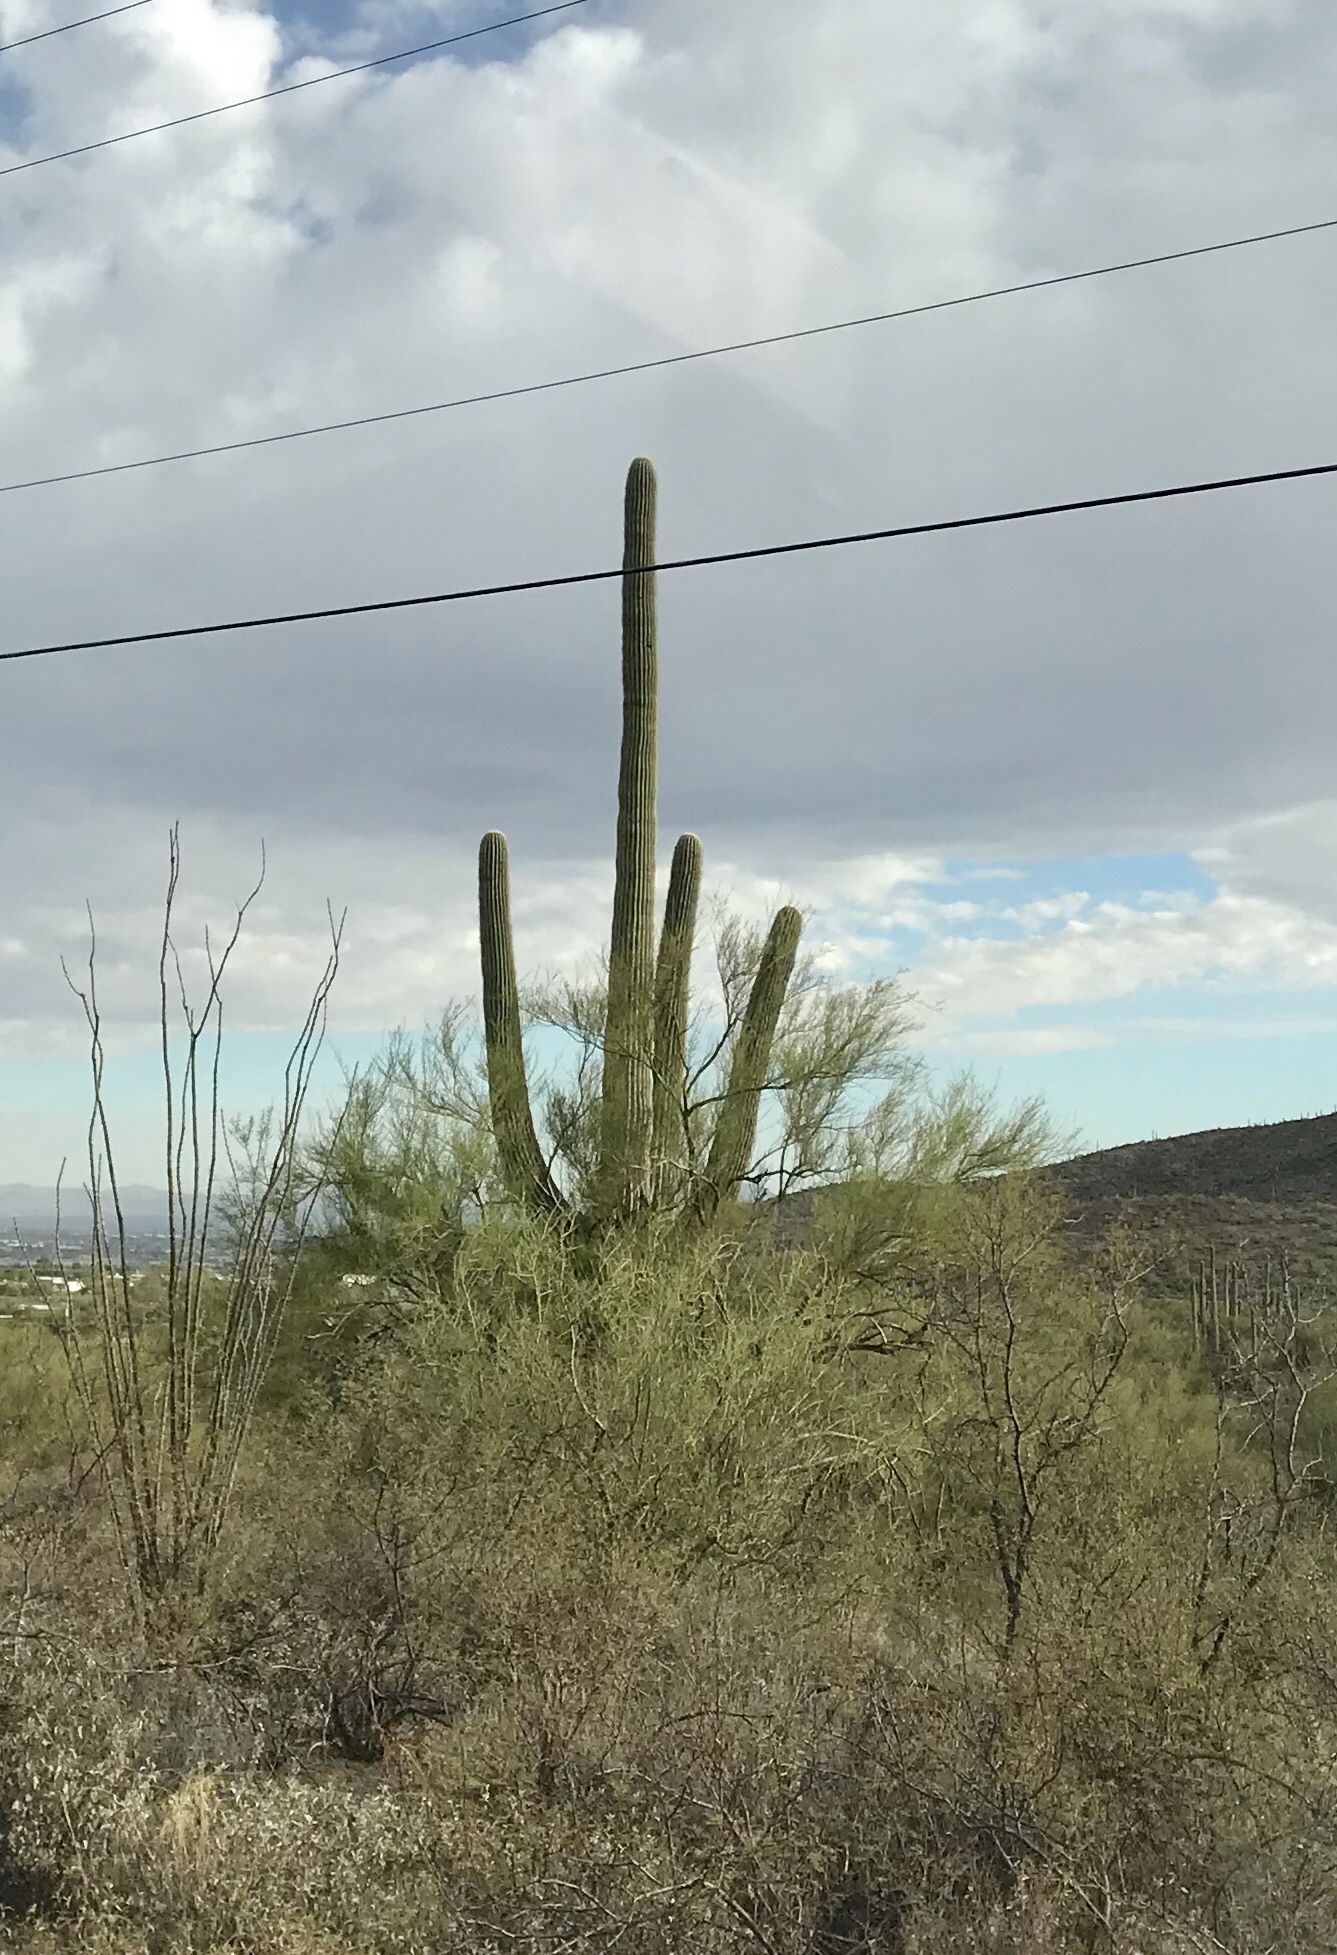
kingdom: Plantae
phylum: Tracheophyta
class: Magnoliopsida
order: Caryophyllales
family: Cactaceae
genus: Carnegiea
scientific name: Carnegiea gigantea
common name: Saguaro
